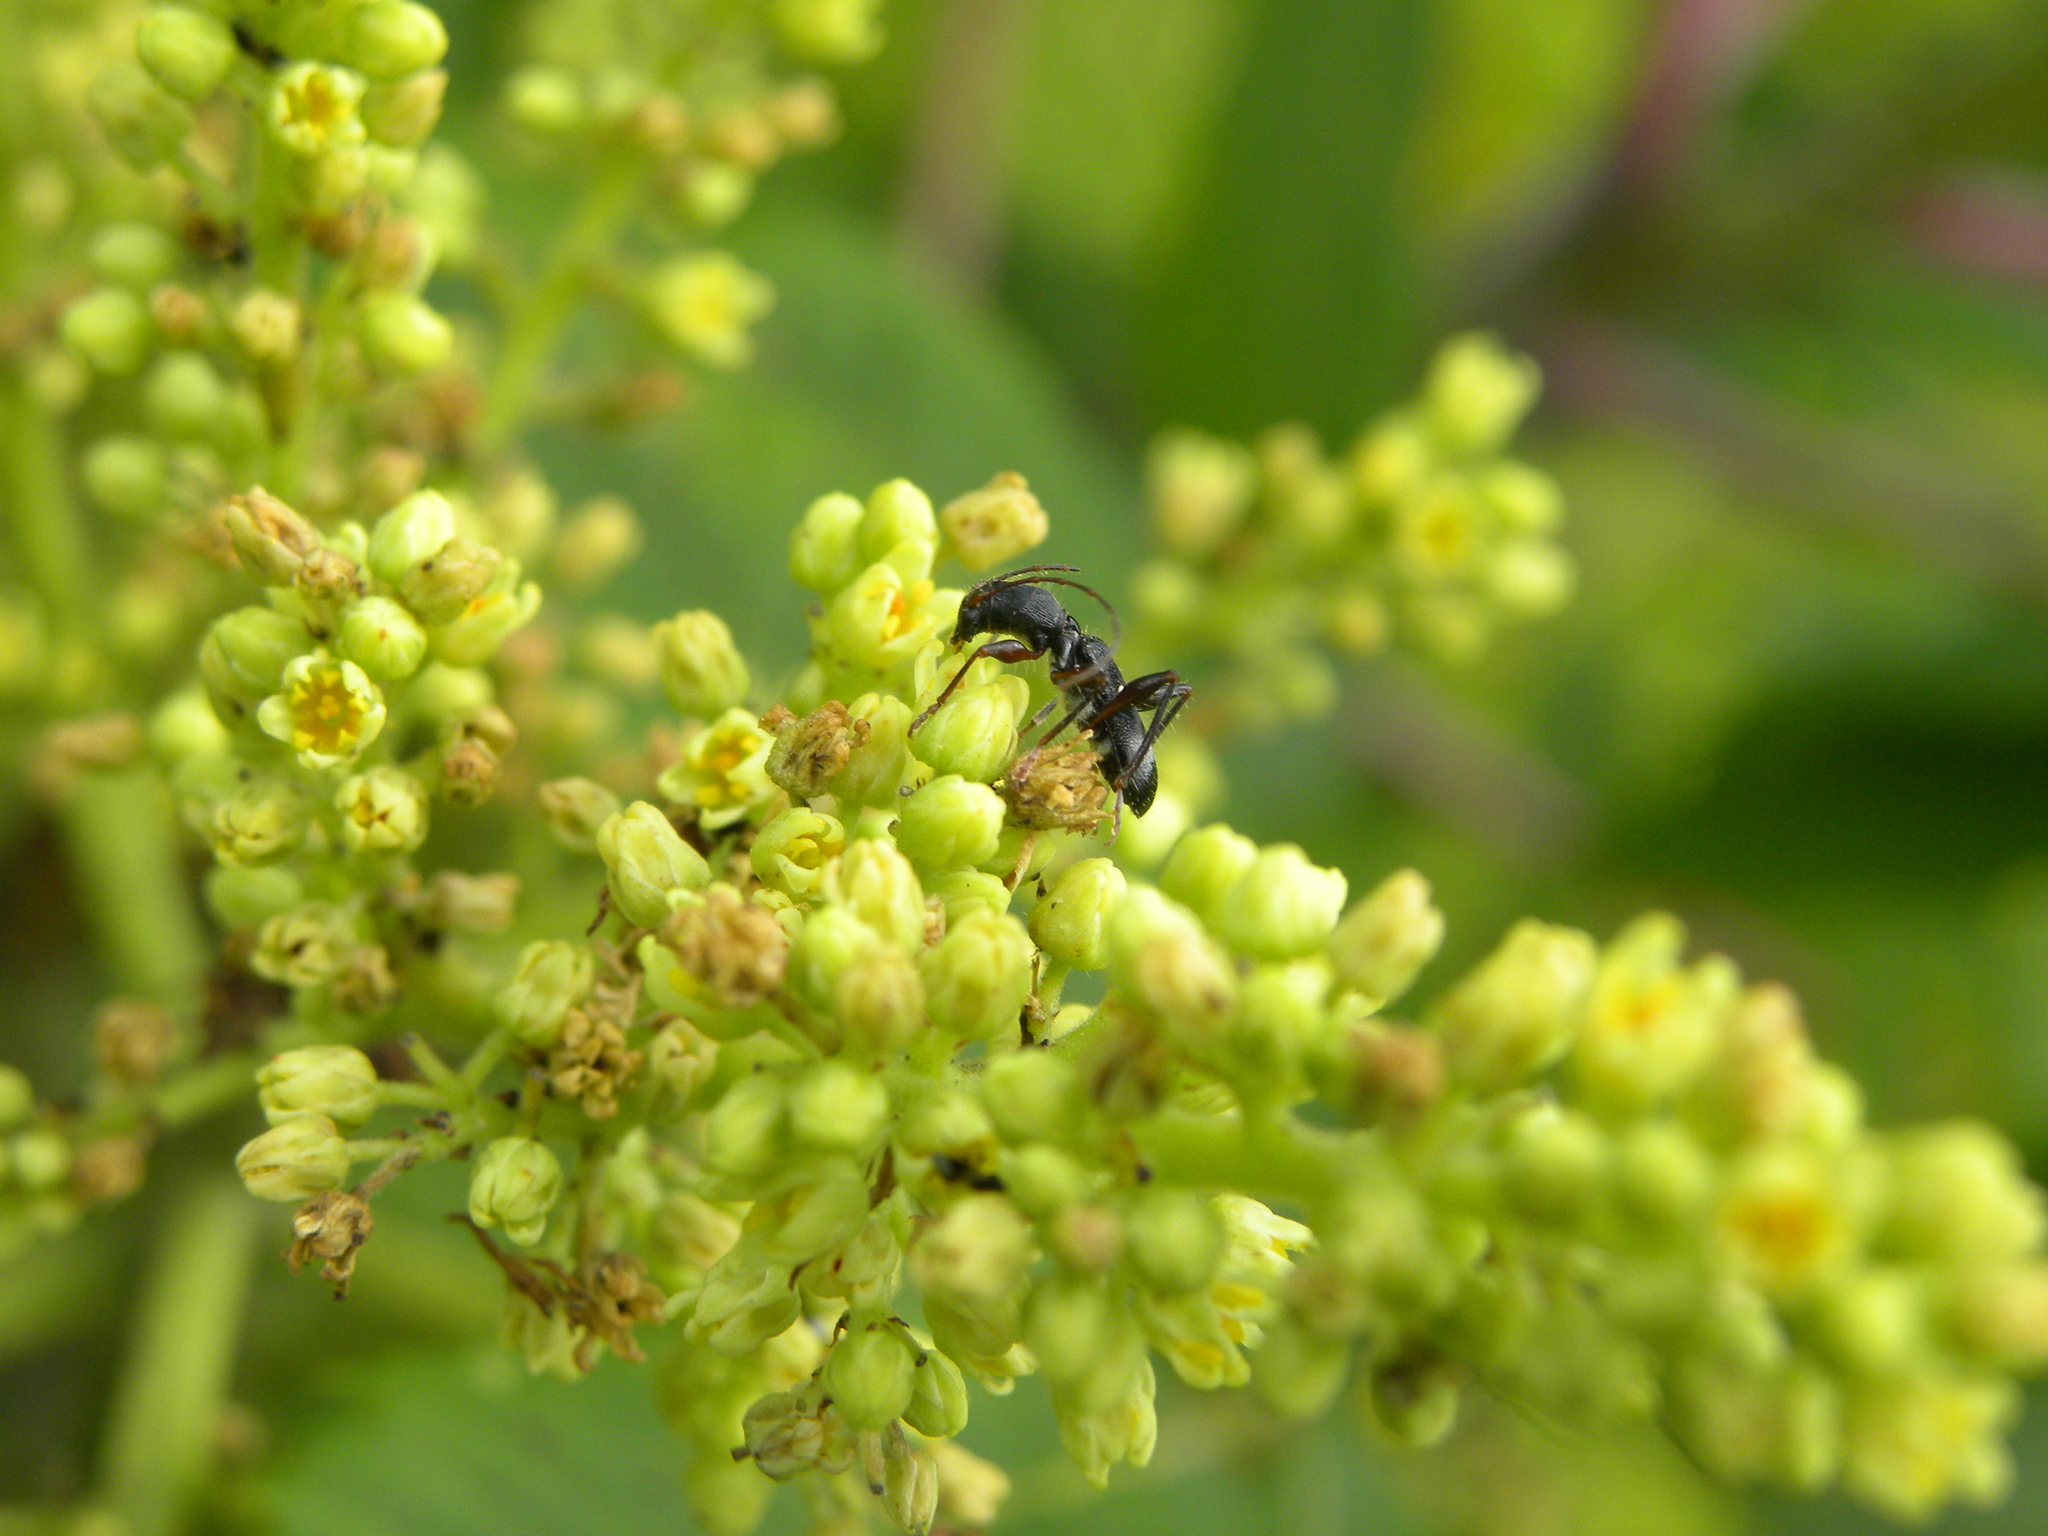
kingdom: Animalia
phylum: Arthropoda
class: Insecta
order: Coleoptera
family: Cerambycidae
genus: Euderces
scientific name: Euderces picipes
